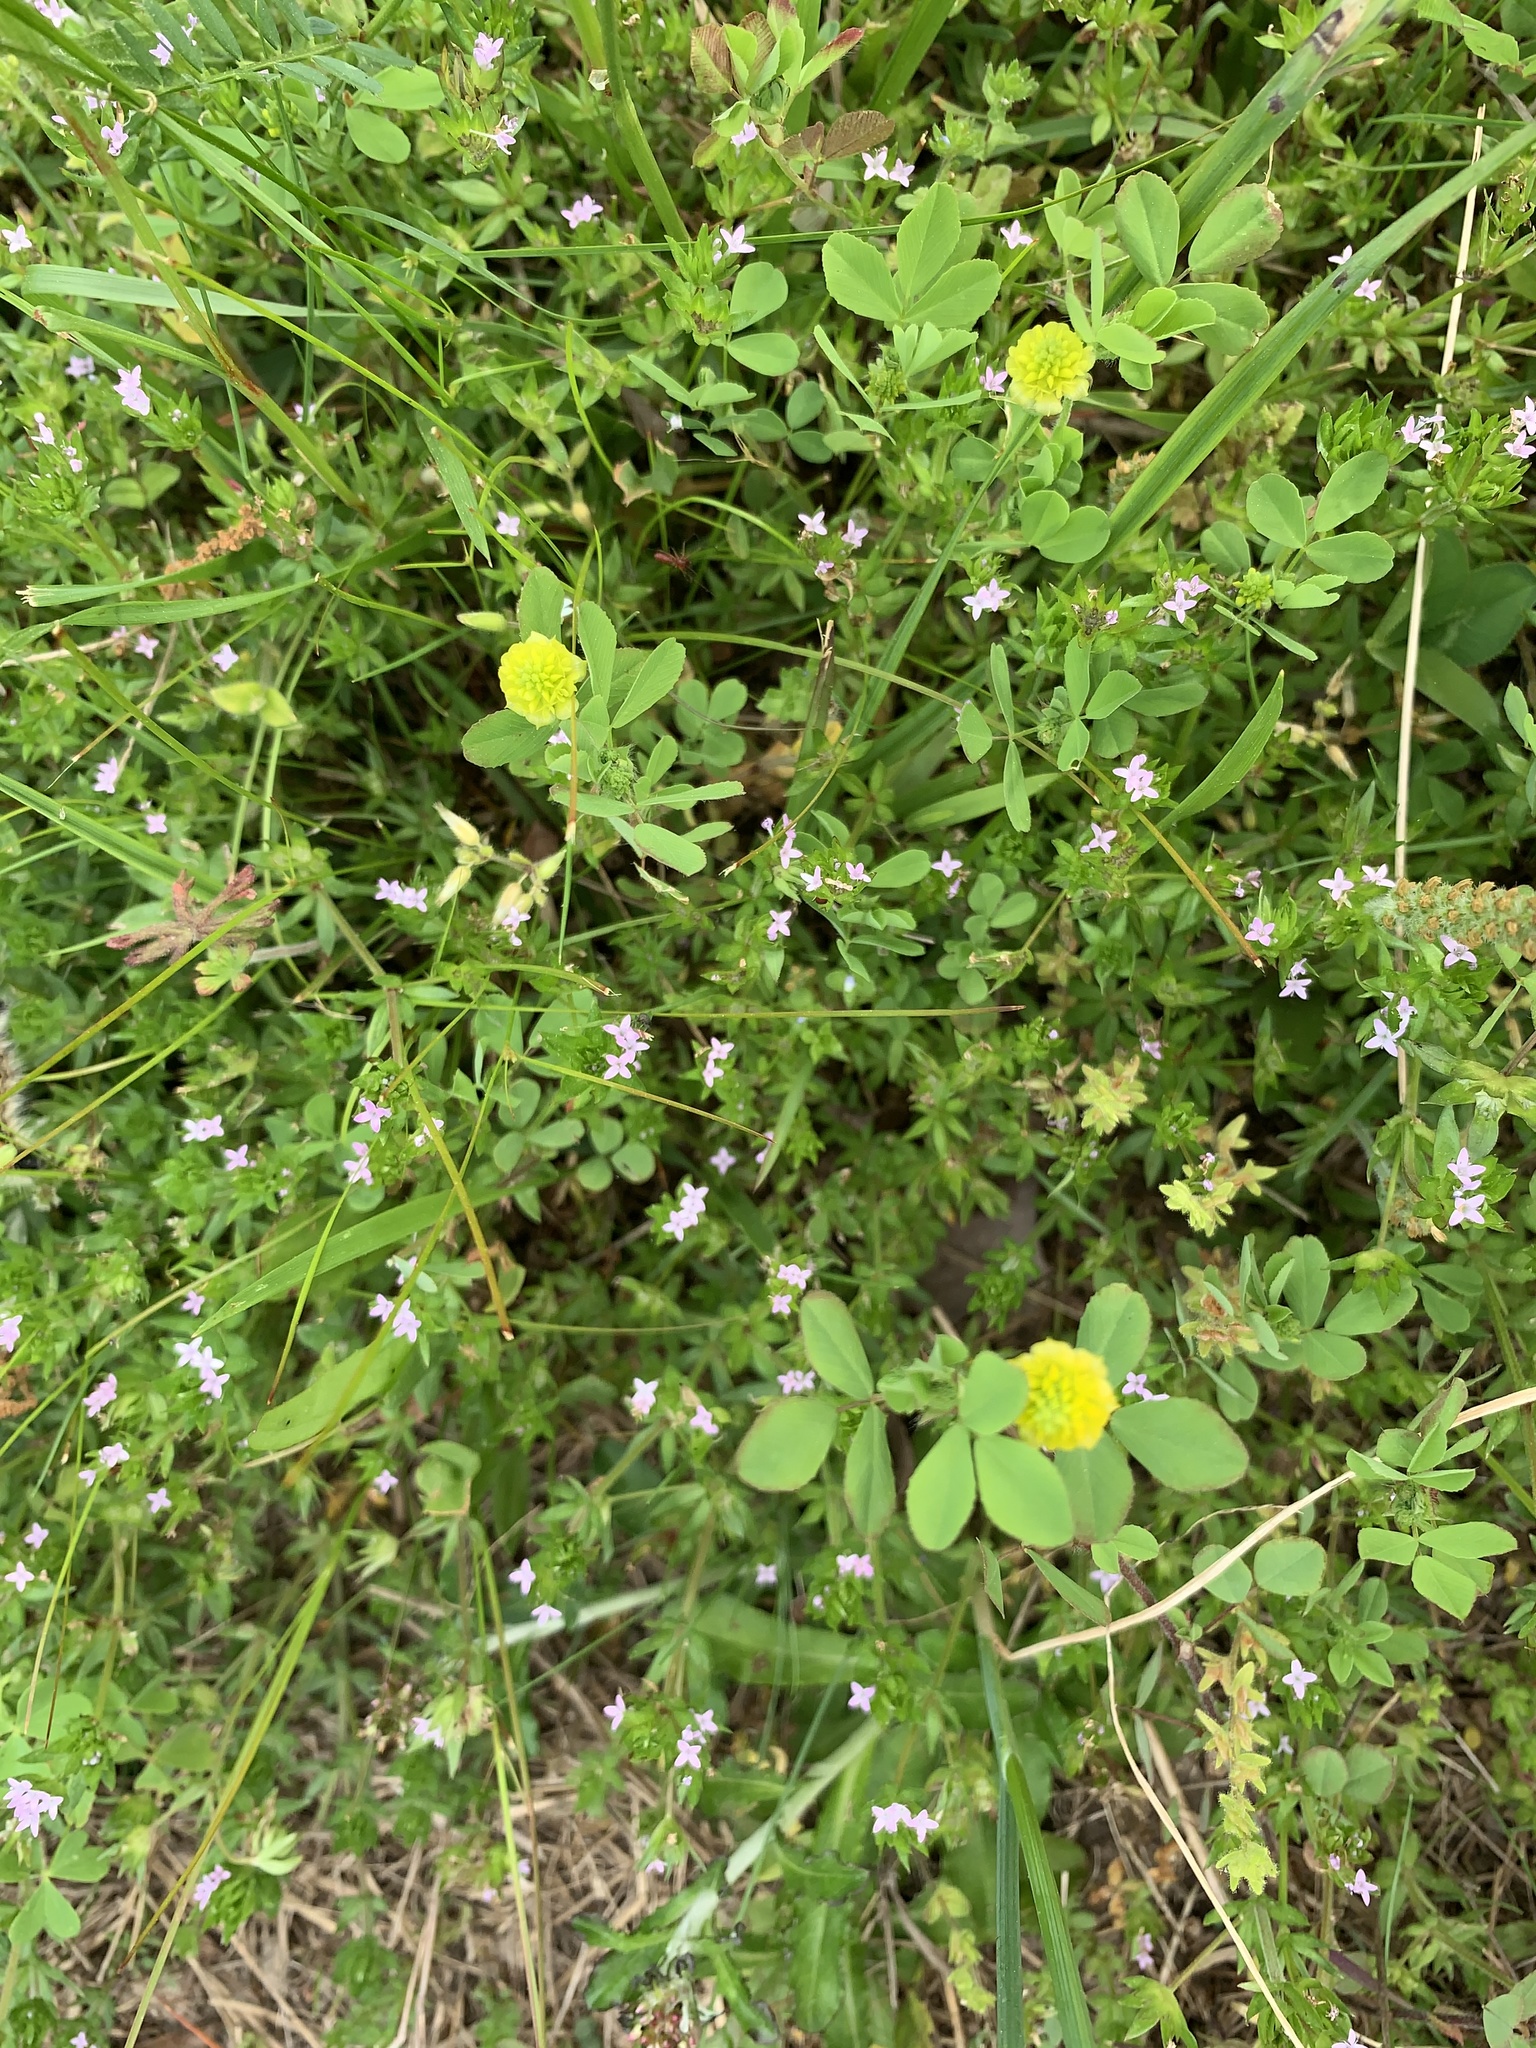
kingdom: Plantae
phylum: Tracheophyta
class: Magnoliopsida
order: Fabales
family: Fabaceae
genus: Trifolium
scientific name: Trifolium campestre
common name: Field clover
